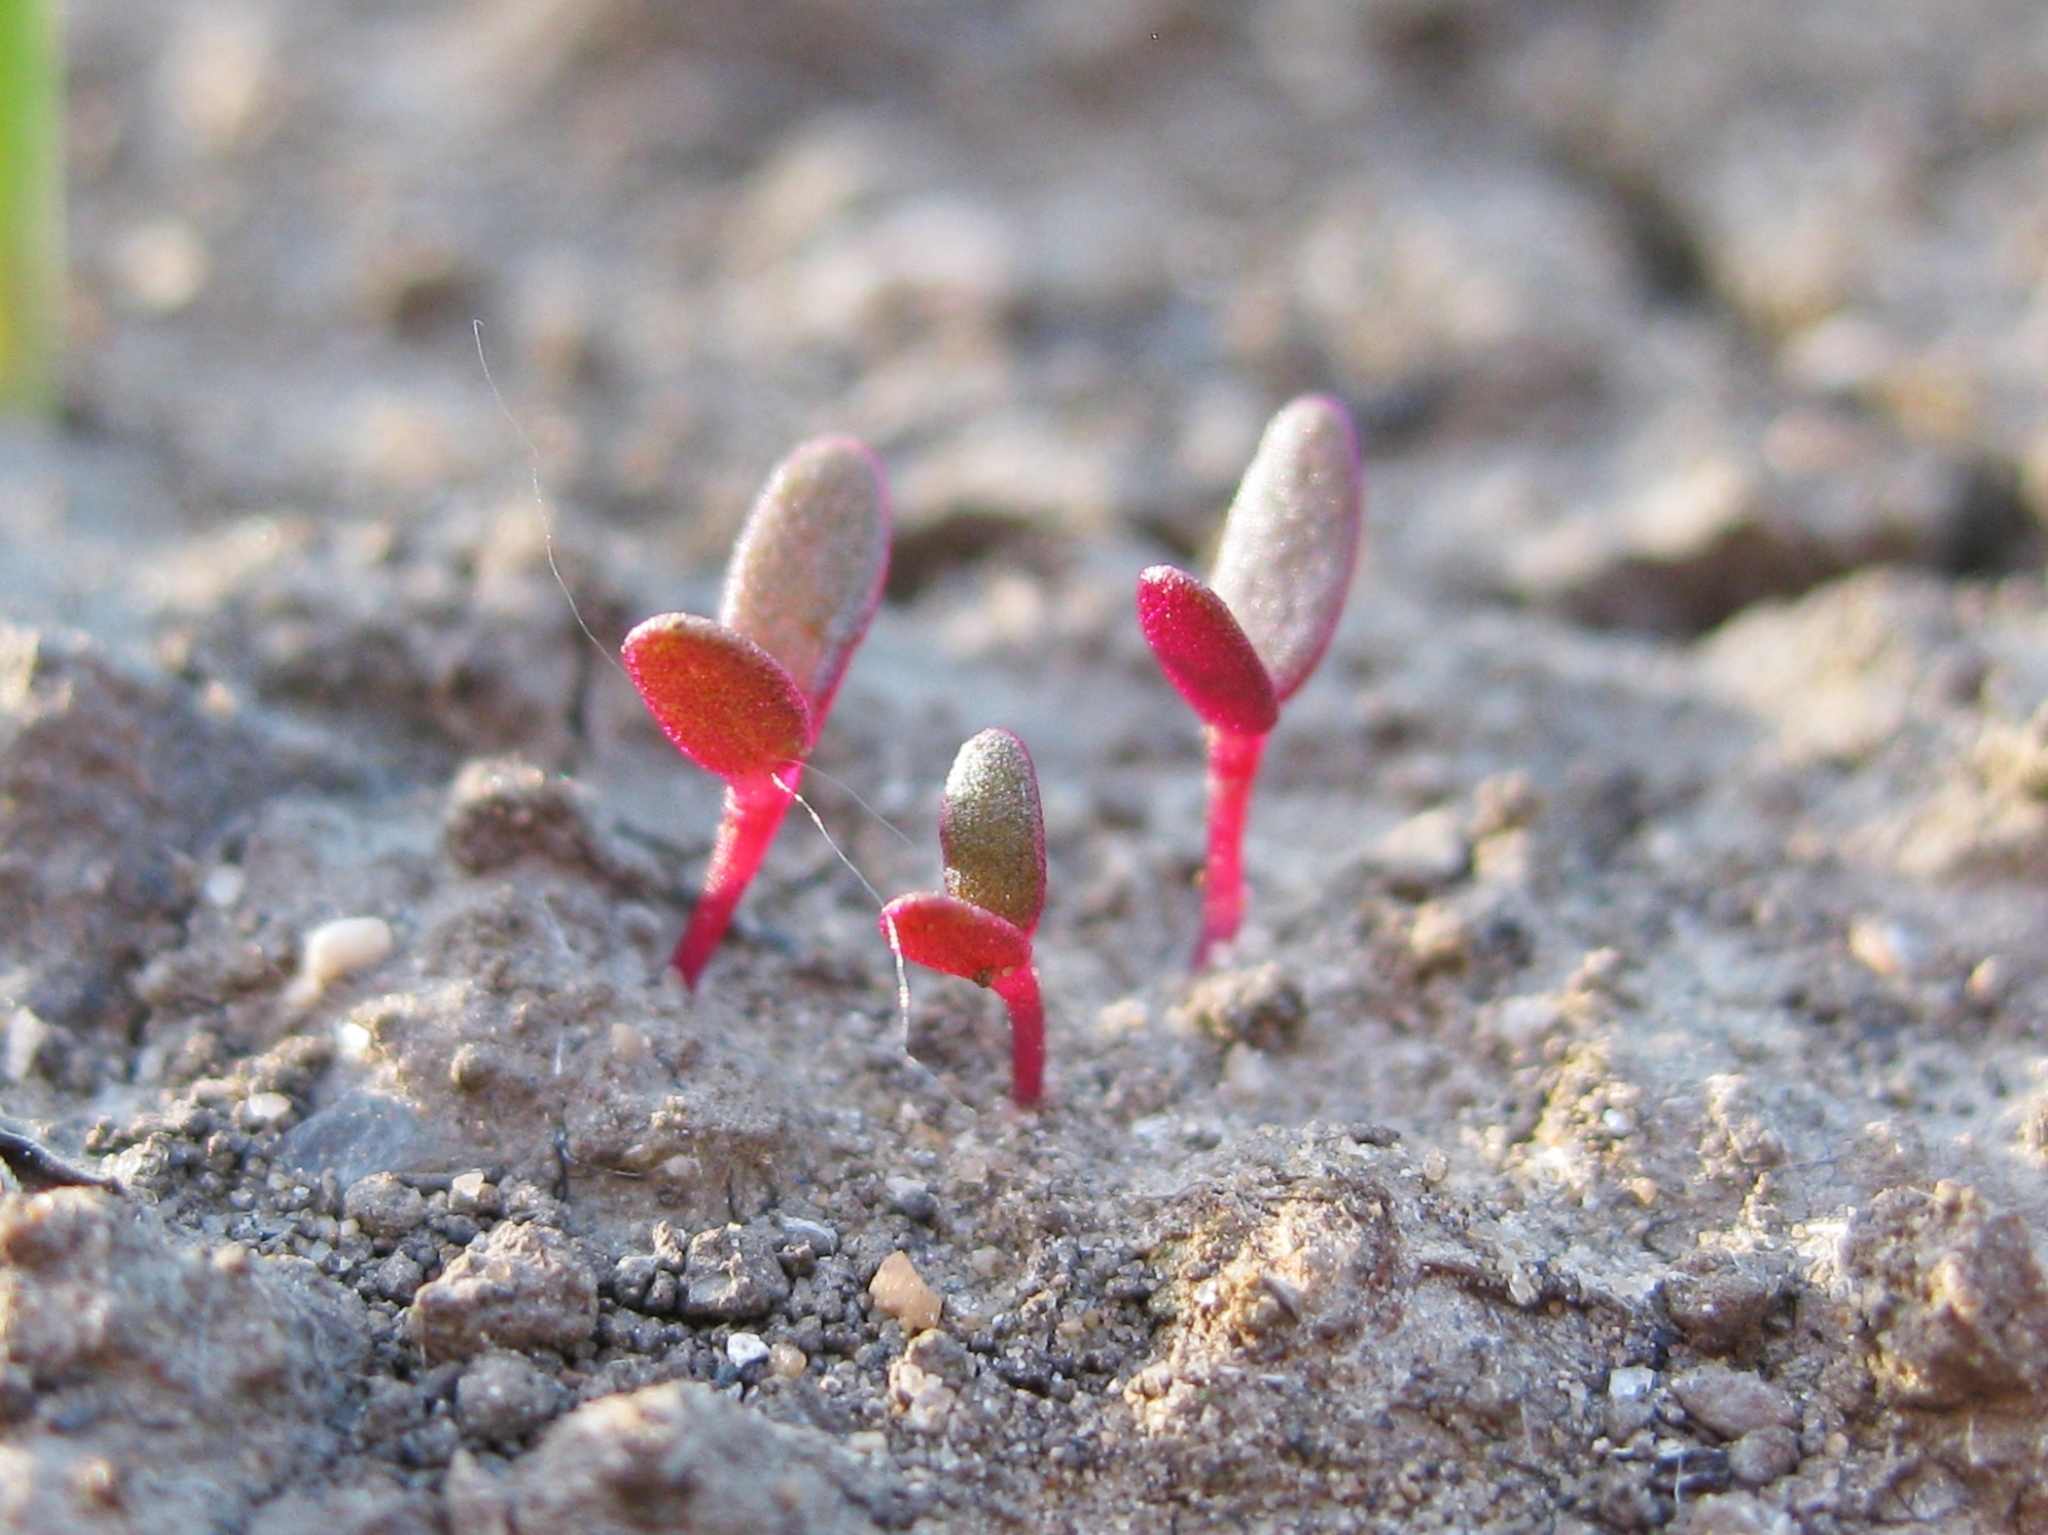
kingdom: Plantae
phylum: Tracheophyta
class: Magnoliopsida
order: Caryophyllales
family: Portulacaceae
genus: Portulaca
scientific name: Portulaca oleracea
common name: Common purslane
